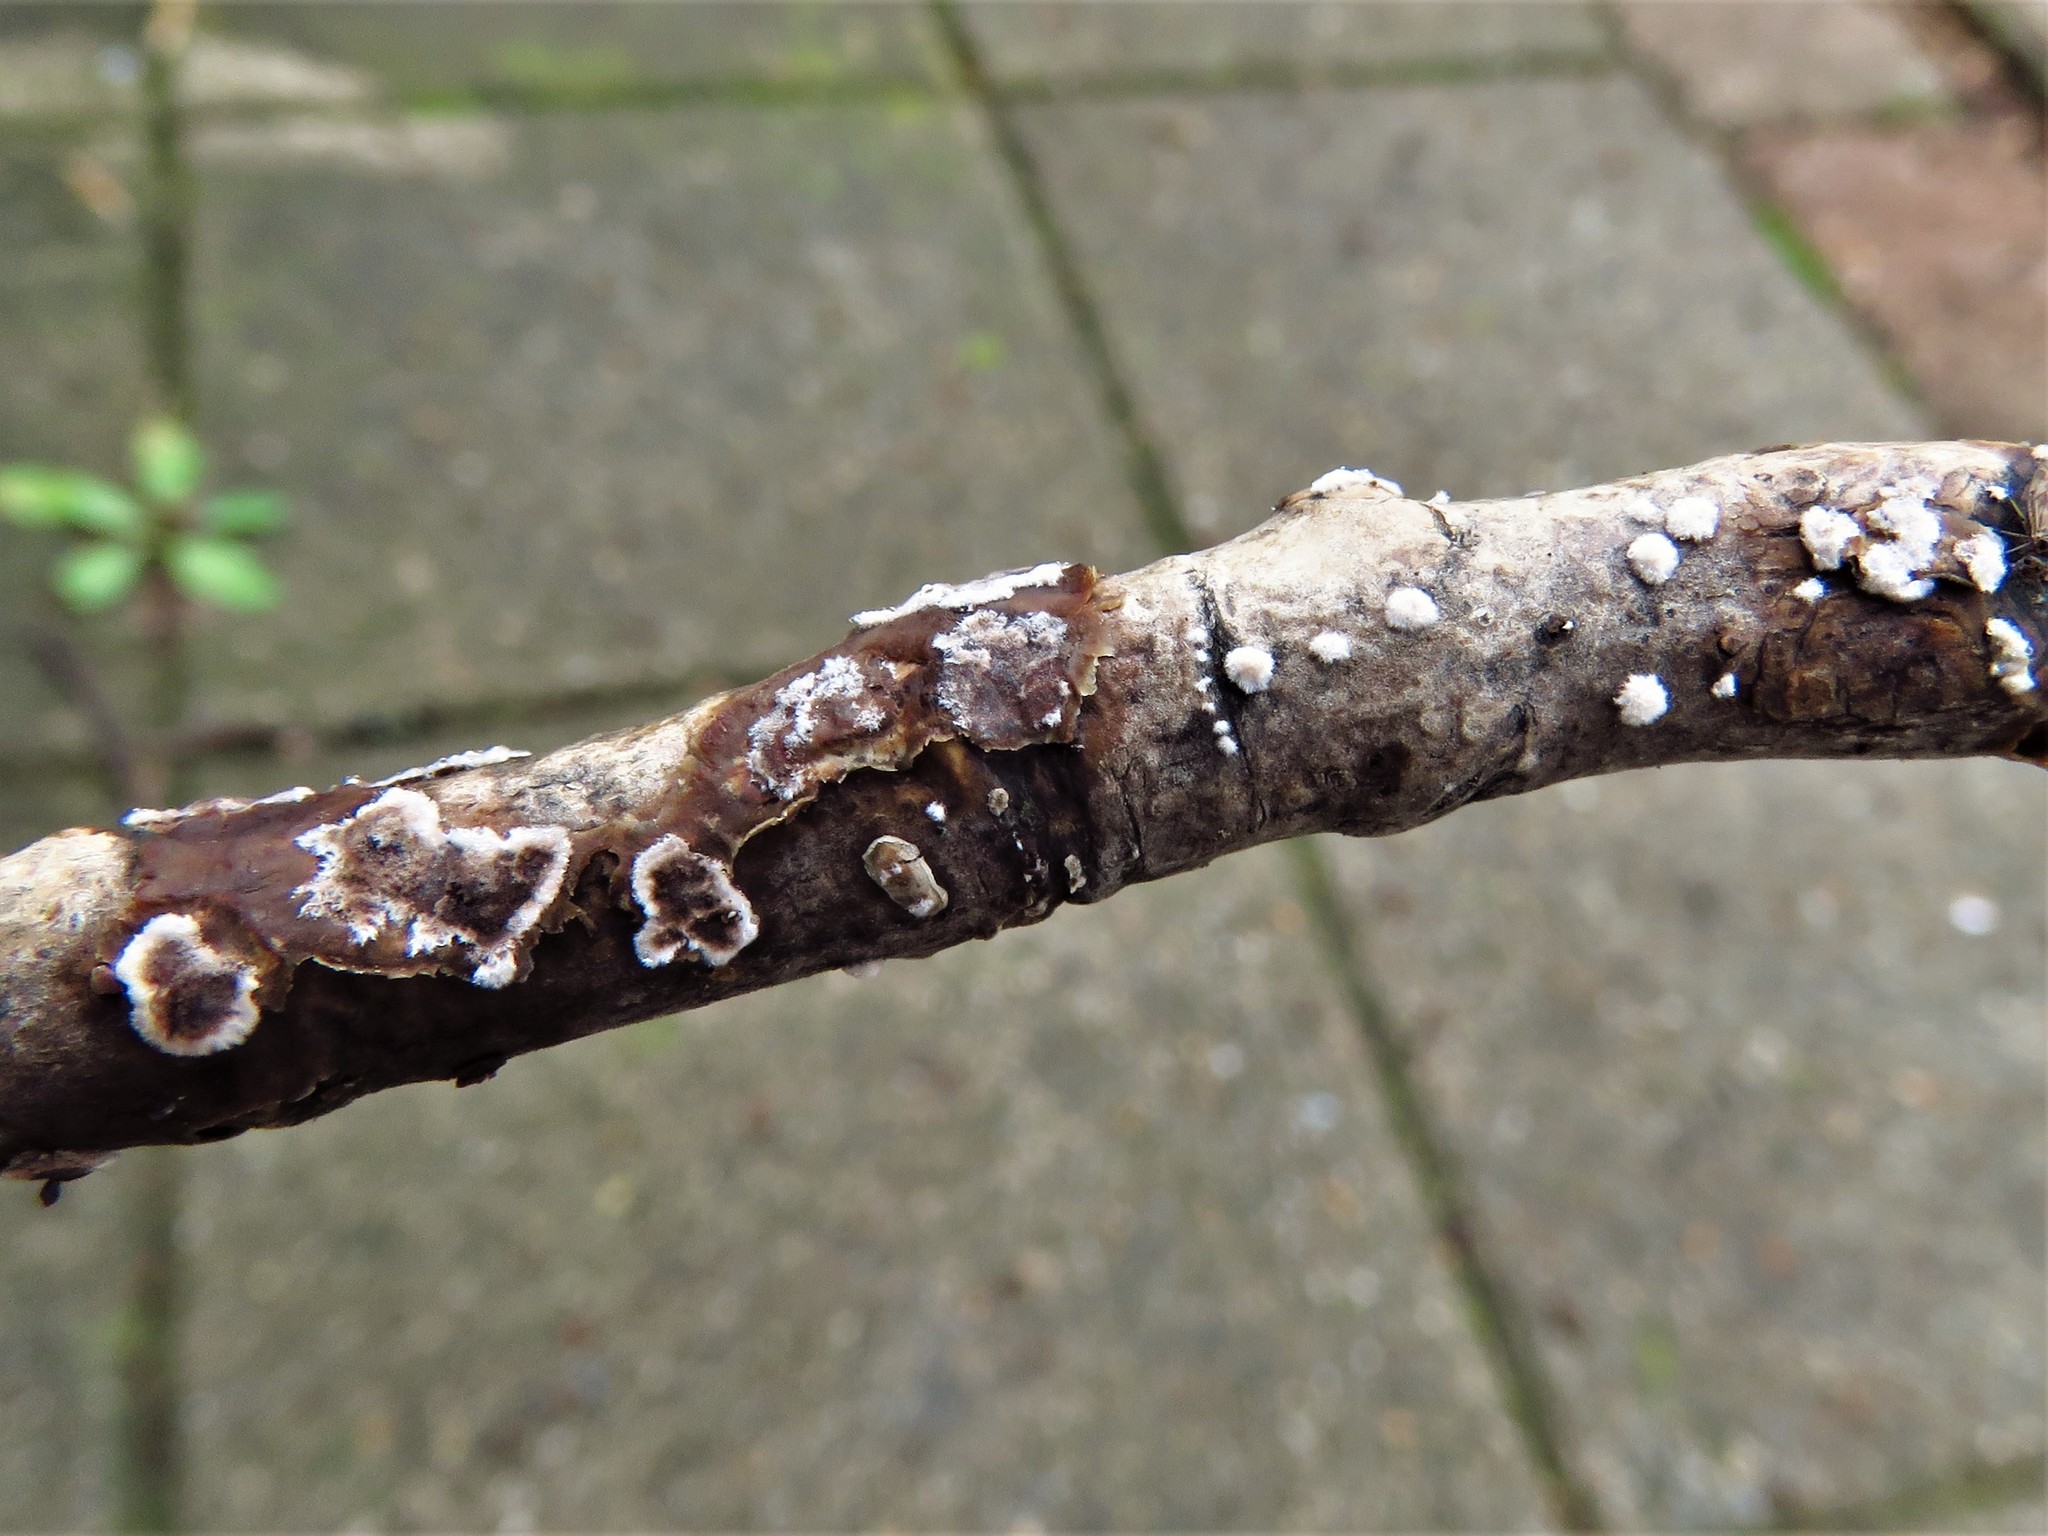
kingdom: Fungi
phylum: Basidiomycota
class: Agaricomycetes
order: Russulales
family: Peniophoraceae
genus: Peniophora
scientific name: Peniophora albobadia
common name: Giraffe spots
